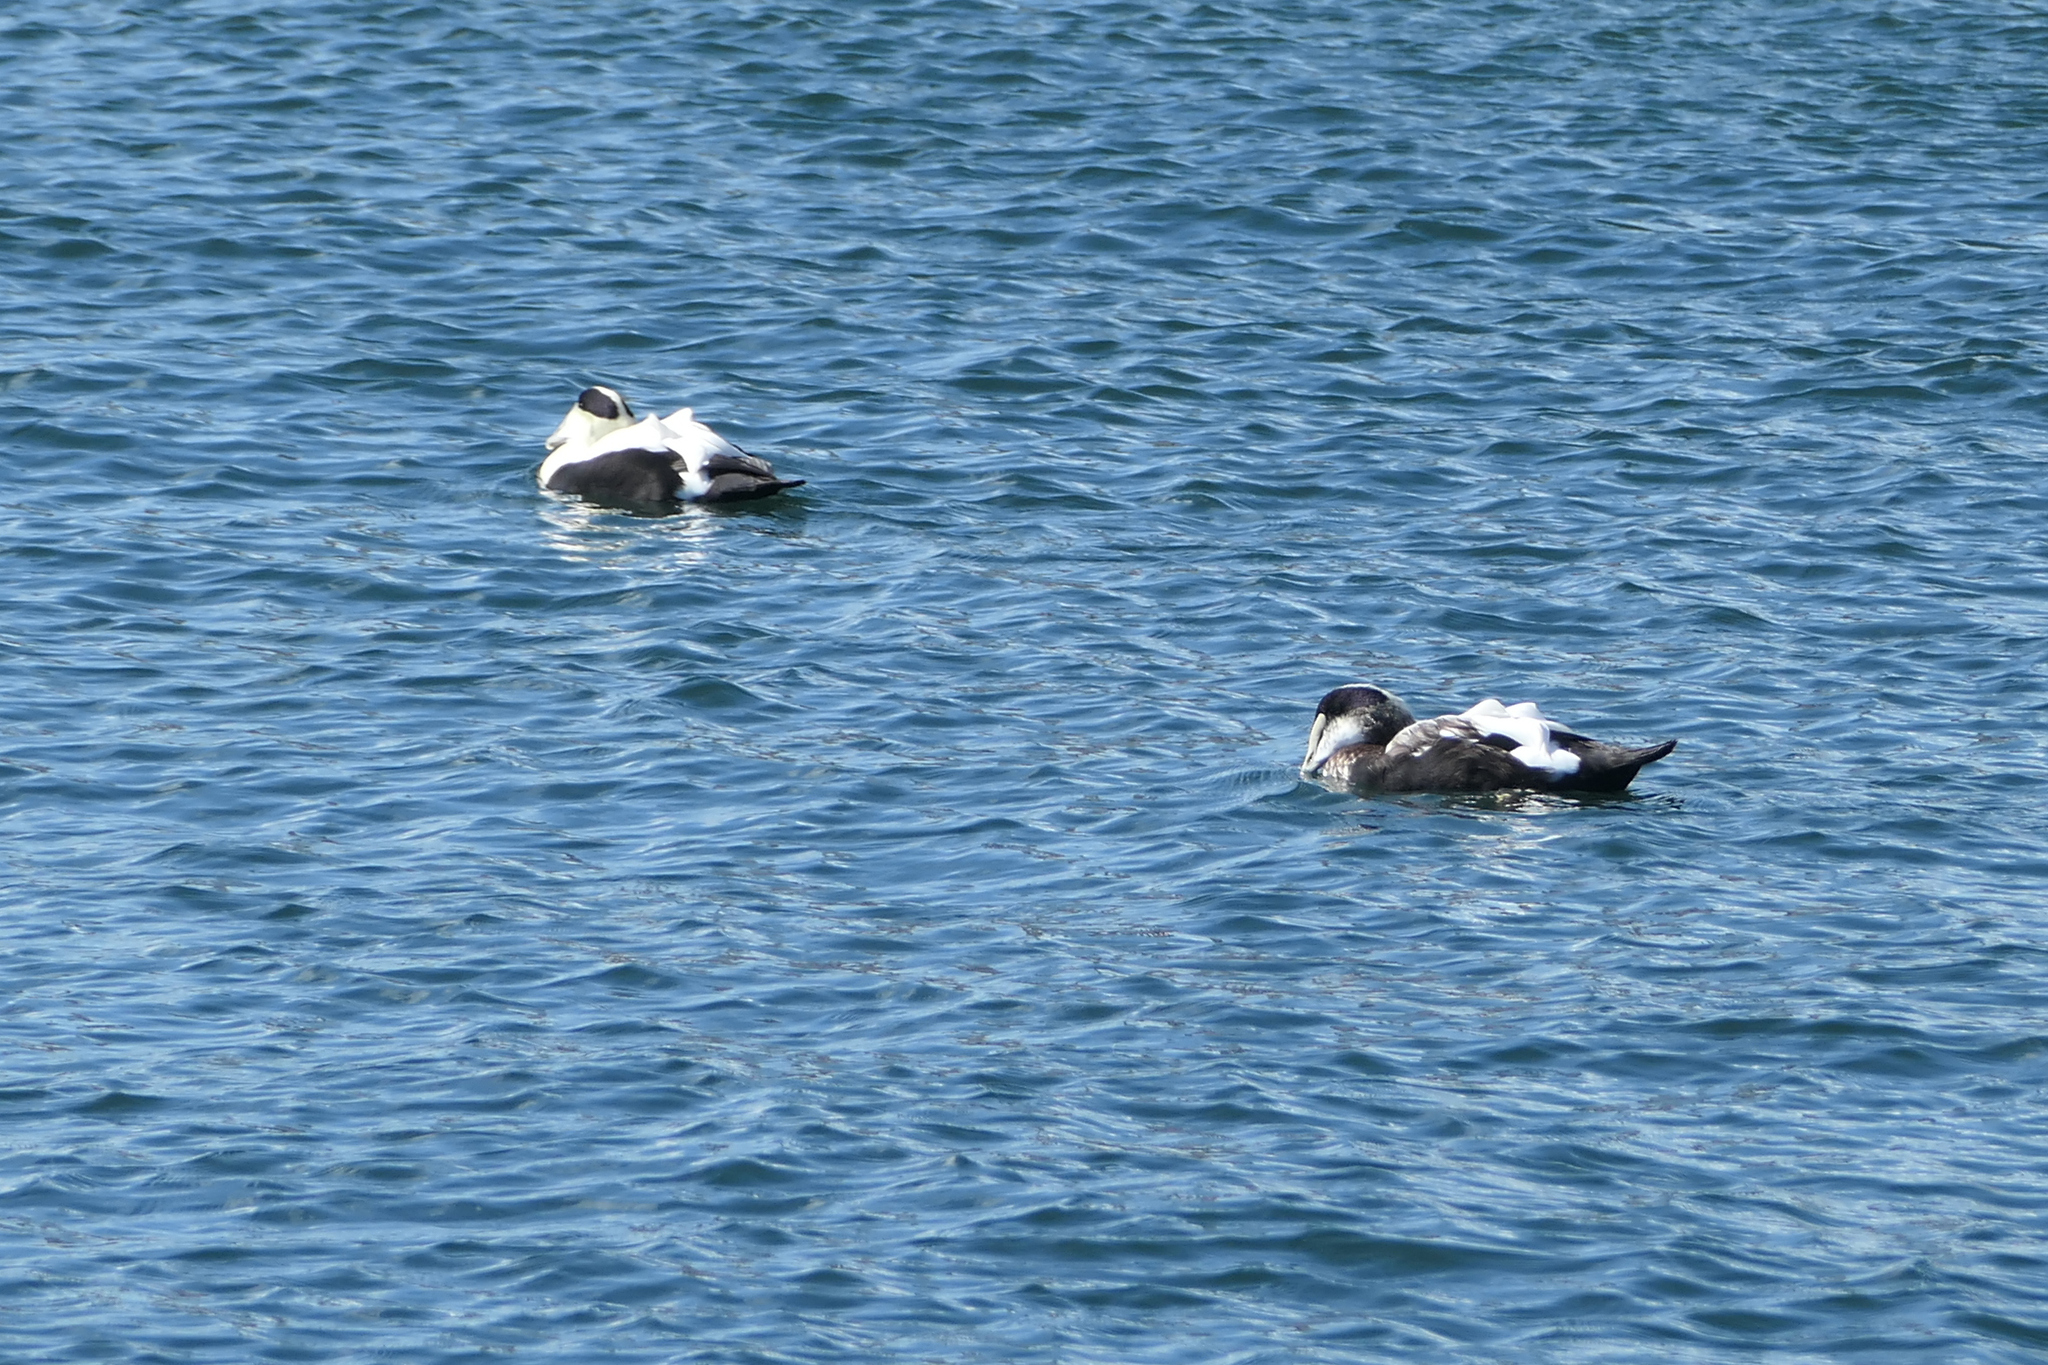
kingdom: Animalia
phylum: Chordata
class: Aves
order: Anseriformes
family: Anatidae
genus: Somateria
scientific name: Somateria mollissima
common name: Common eider
